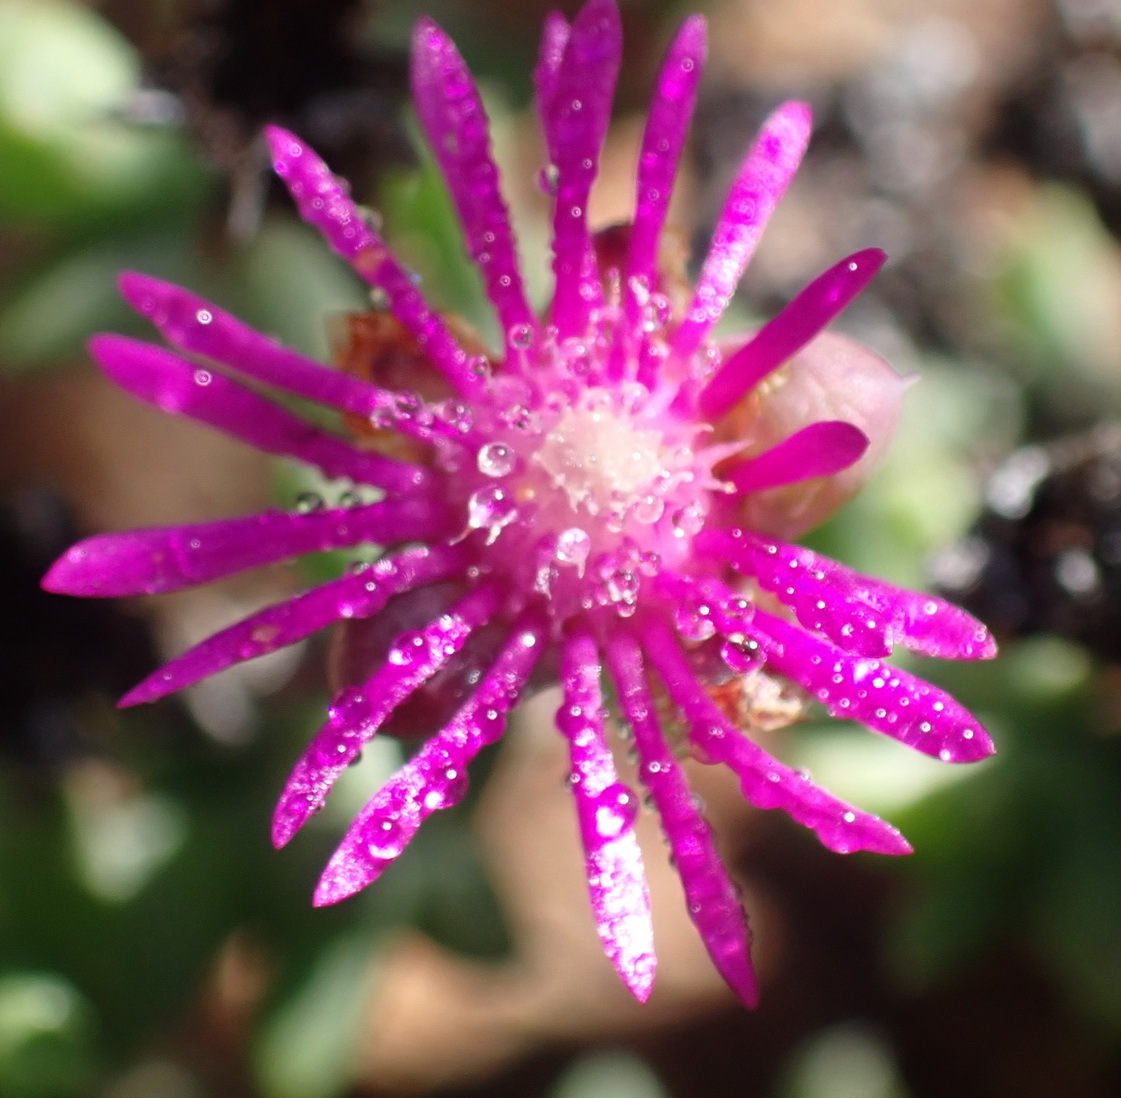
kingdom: Plantae
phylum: Tracheophyta
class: Magnoliopsida
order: Caryophyllales
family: Aizoaceae
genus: Smicrostigma
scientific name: Smicrostigma viride
